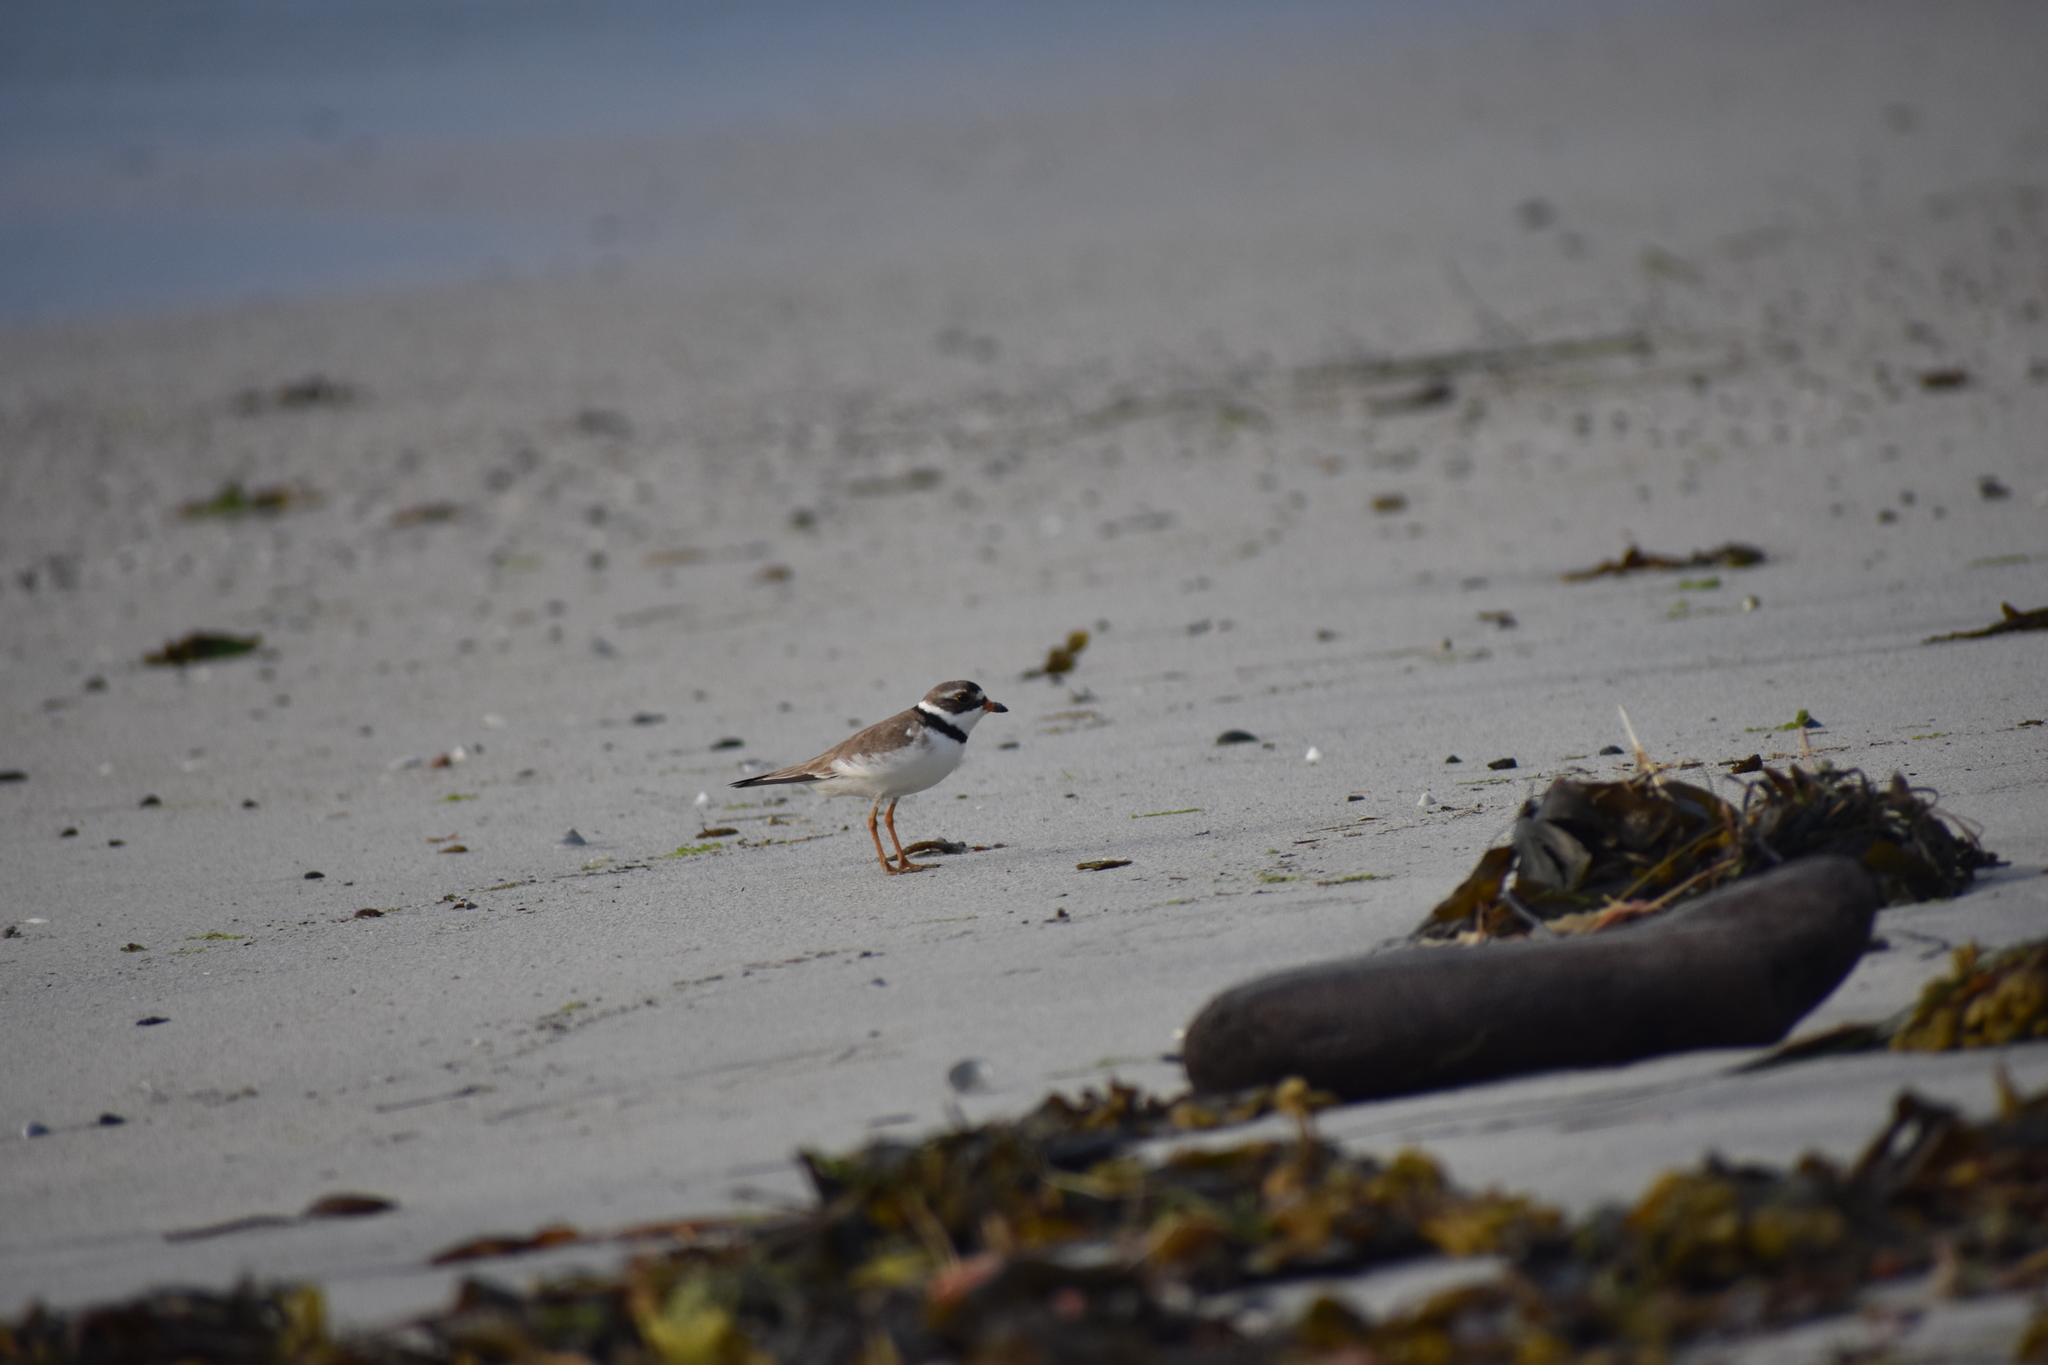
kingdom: Animalia
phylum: Chordata
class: Aves
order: Charadriiformes
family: Charadriidae
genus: Charadrius
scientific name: Charadrius semipalmatus
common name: Semipalmated plover
